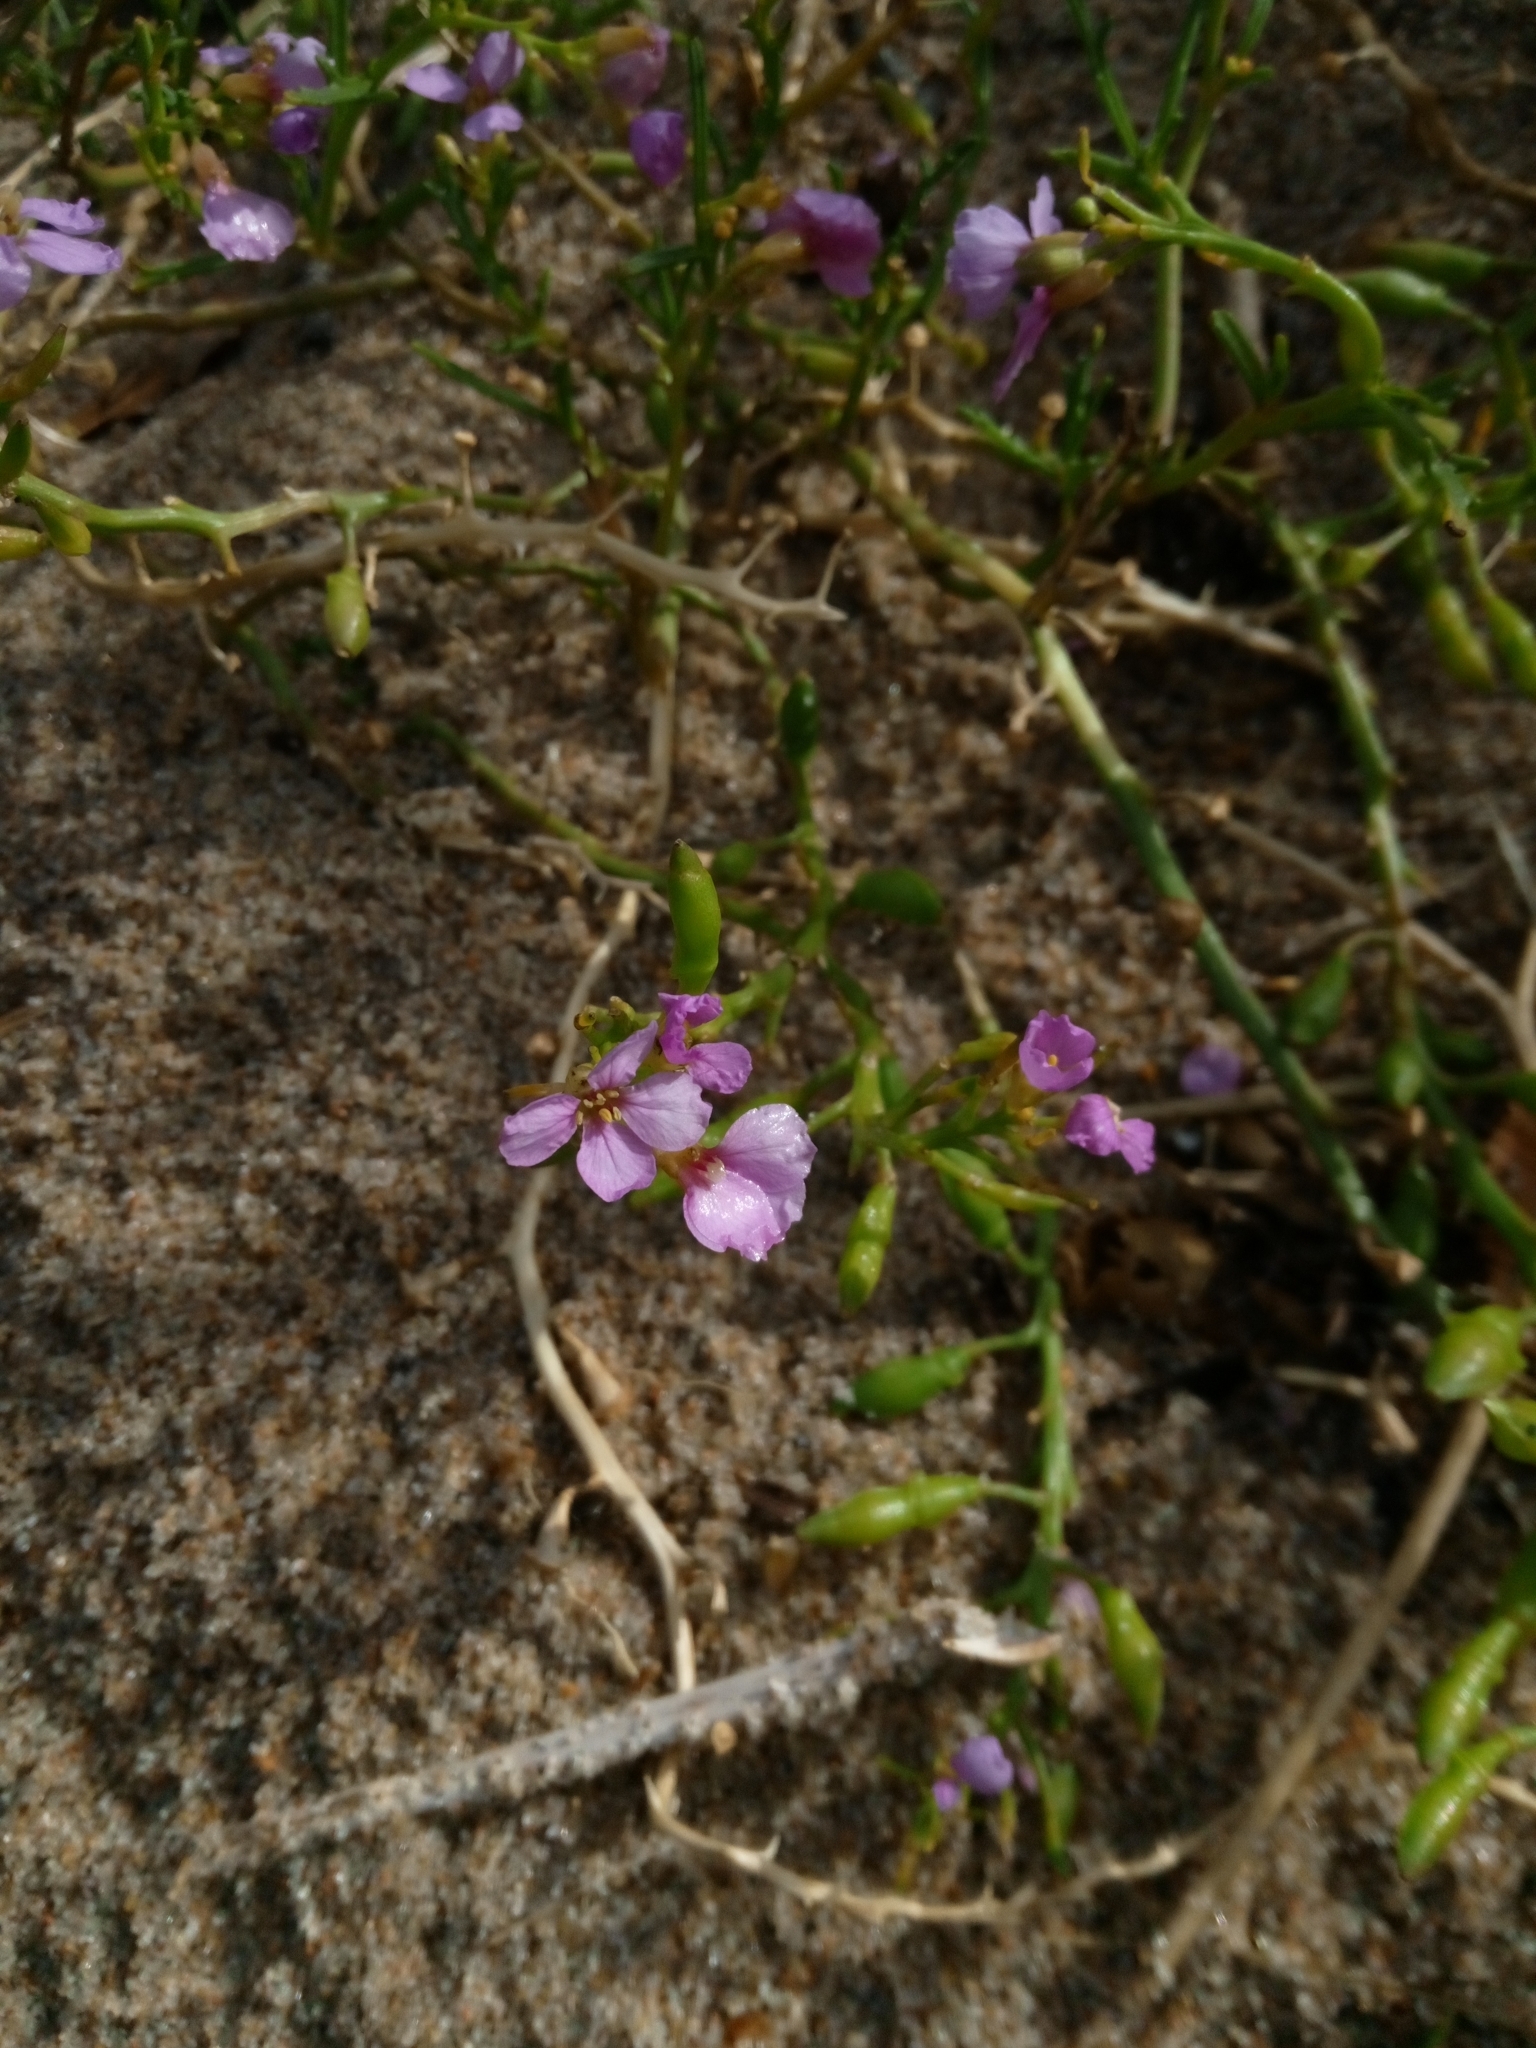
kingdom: Plantae
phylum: Tracheophyta
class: Magnoliopsida
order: Brassicales
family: Brassicaceae
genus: Cakile
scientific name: Cakile maritima
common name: Sea rocket
